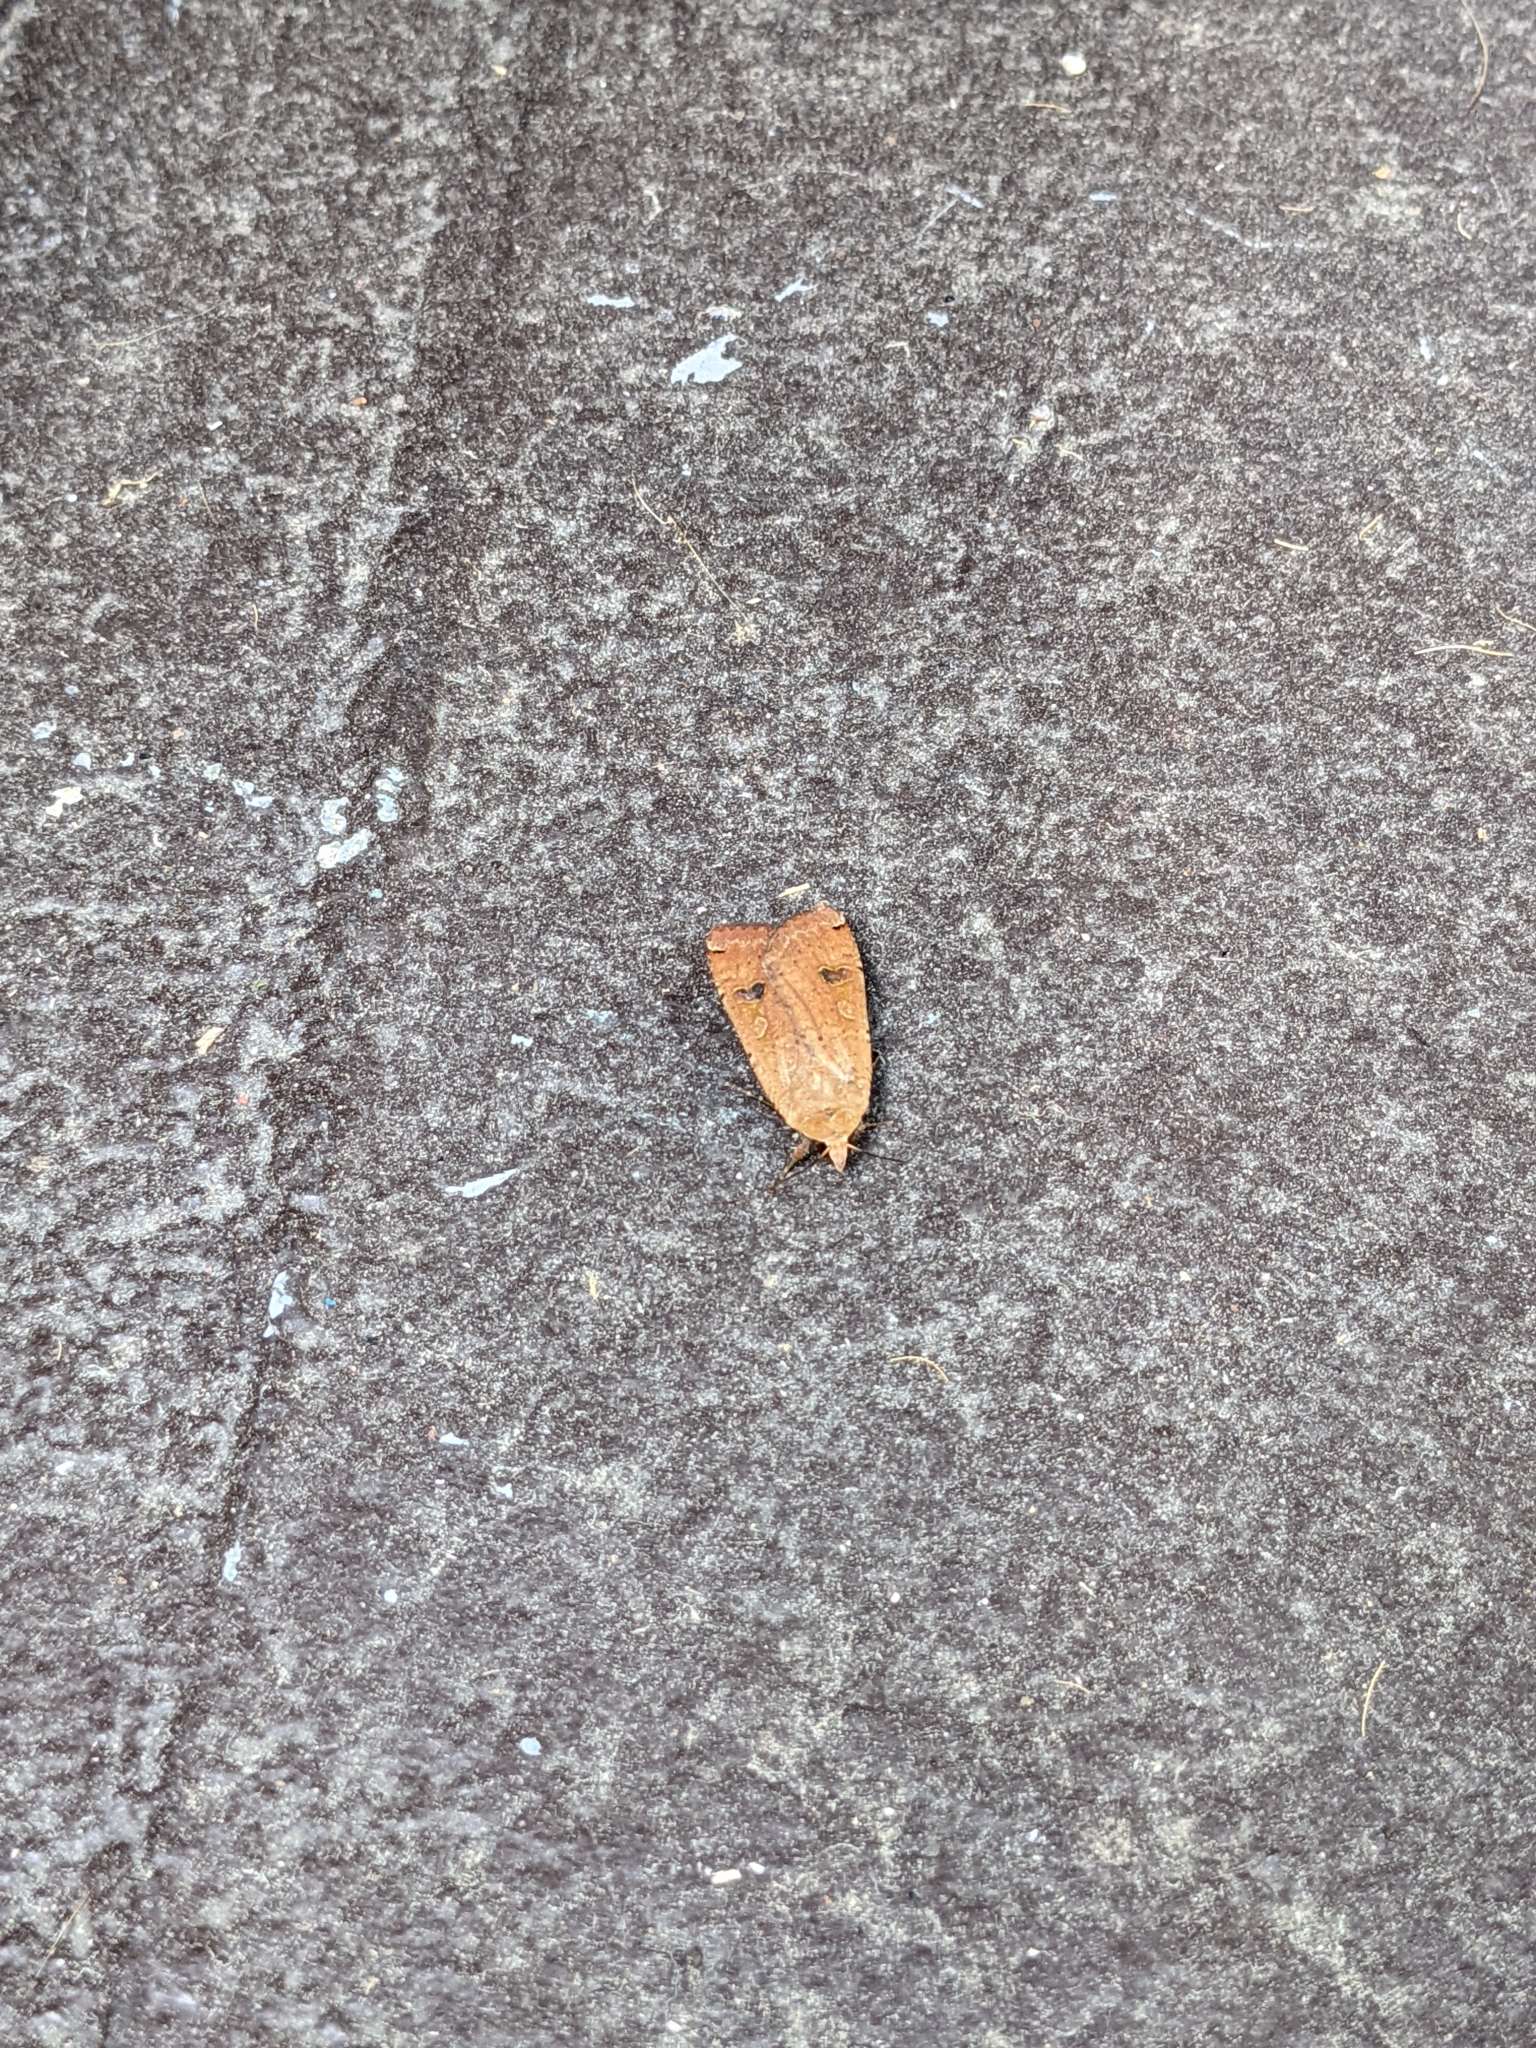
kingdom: Animalia
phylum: Arthropoda
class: Insecta
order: Lepidoptera
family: Noctuidae
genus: Noctua
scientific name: Noctua pronuba
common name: Large yellow underwing
